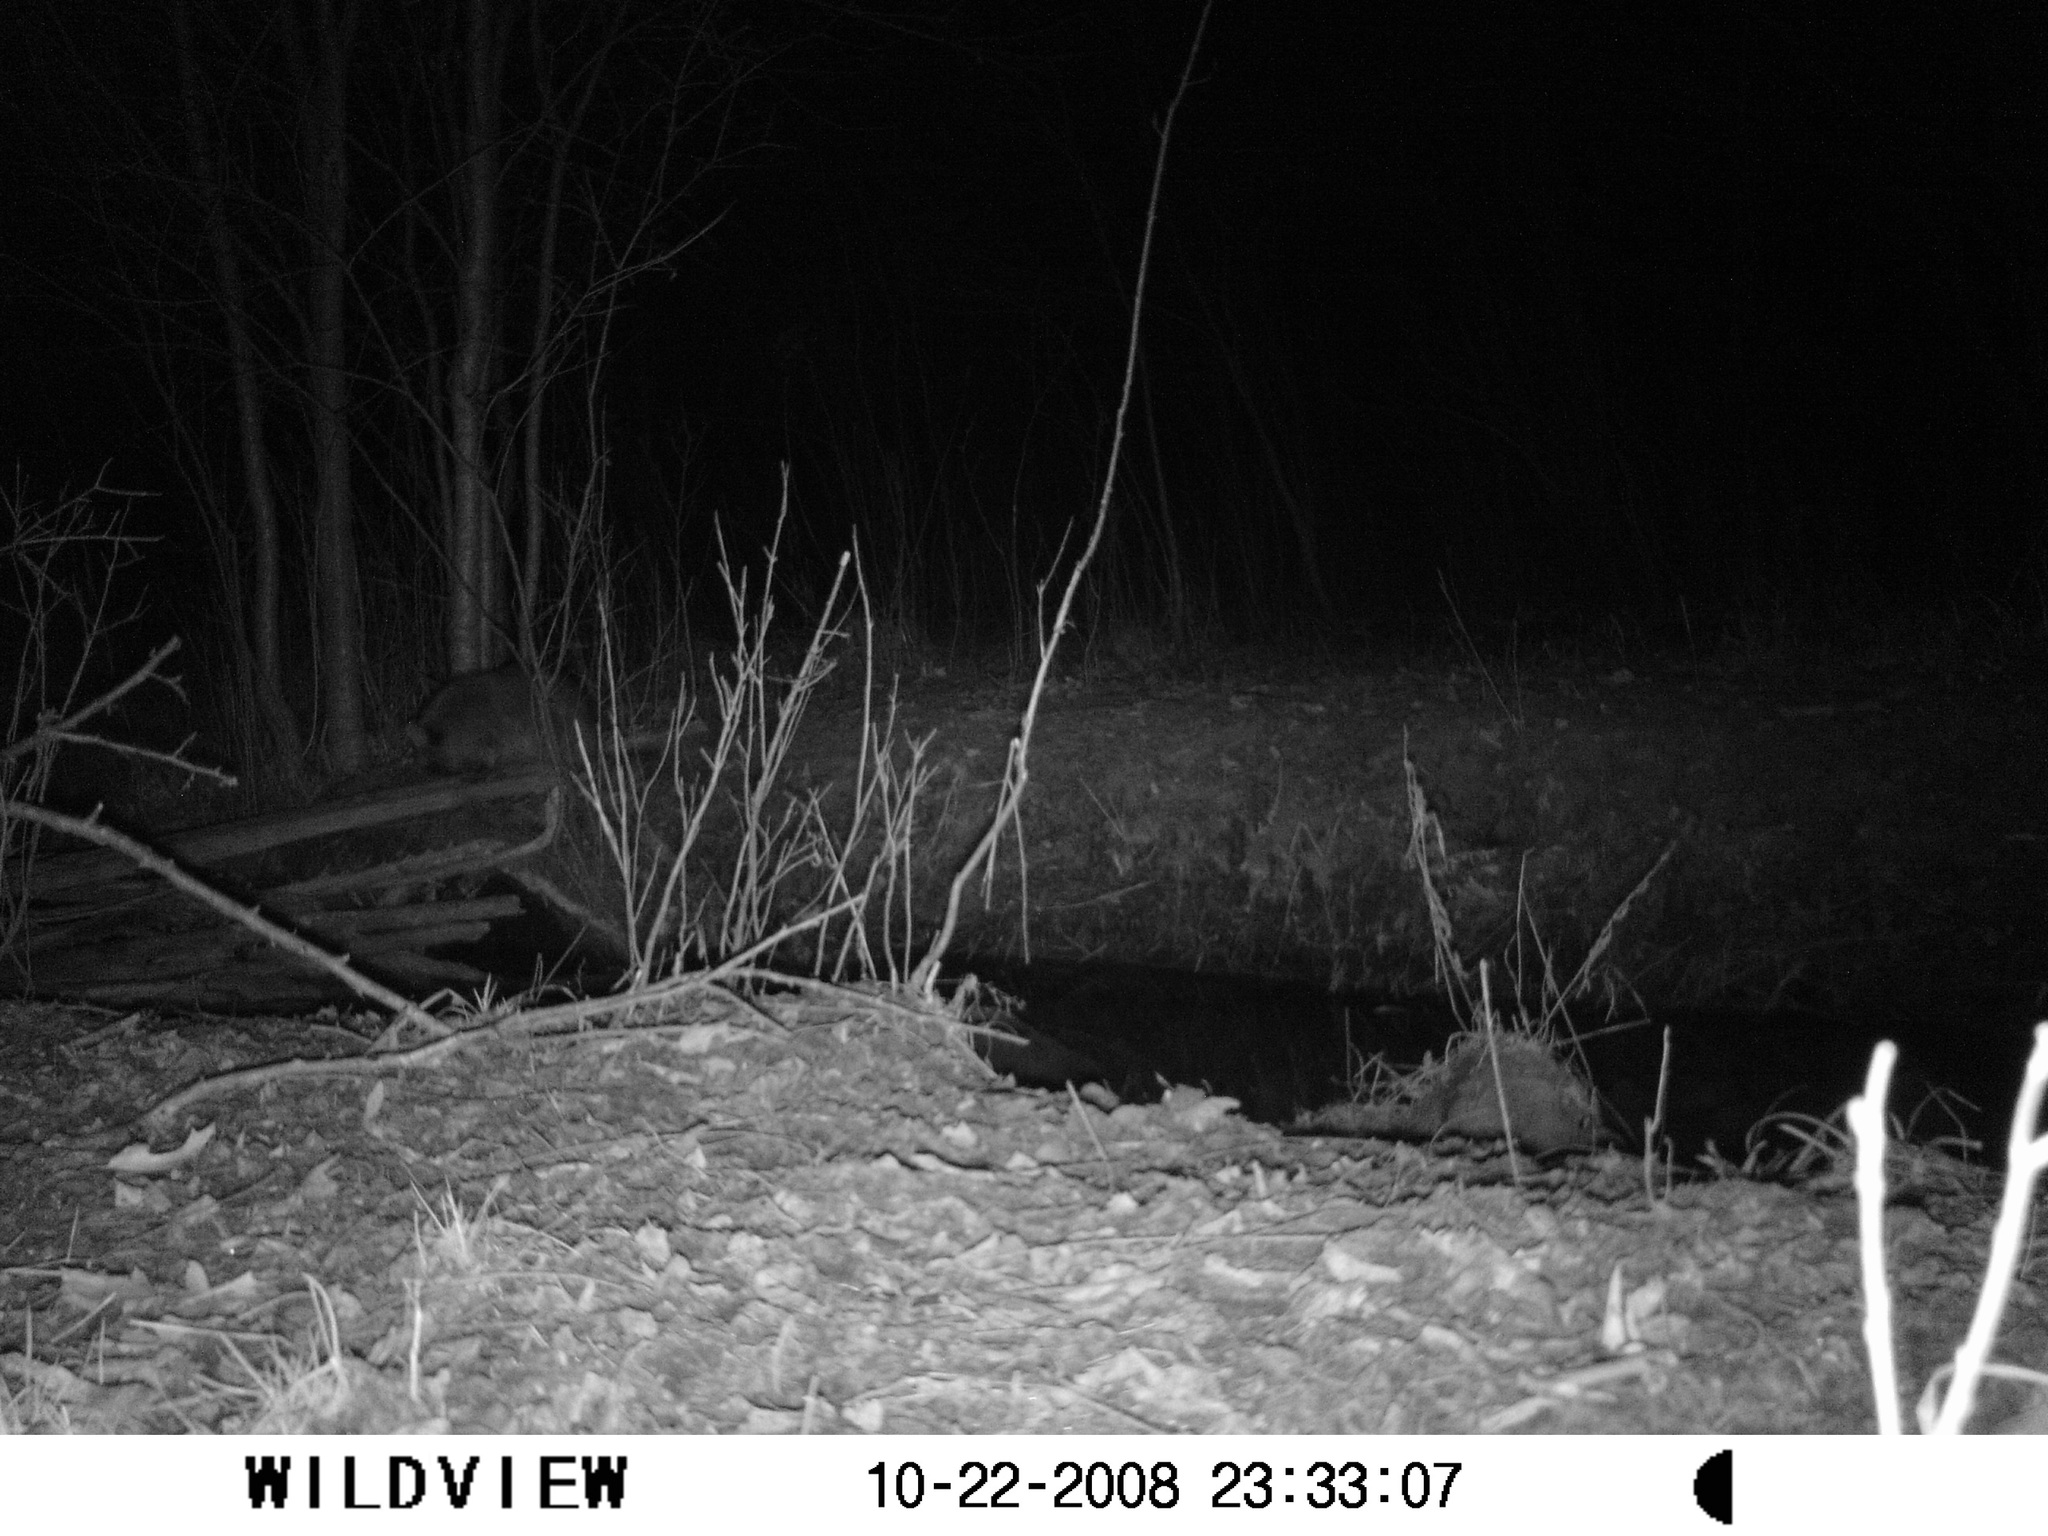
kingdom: Animalia
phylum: Chordata
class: Mammalia
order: Carnivora
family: Procyonidae
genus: Procyon
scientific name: Procyon lotor
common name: Raccoon
